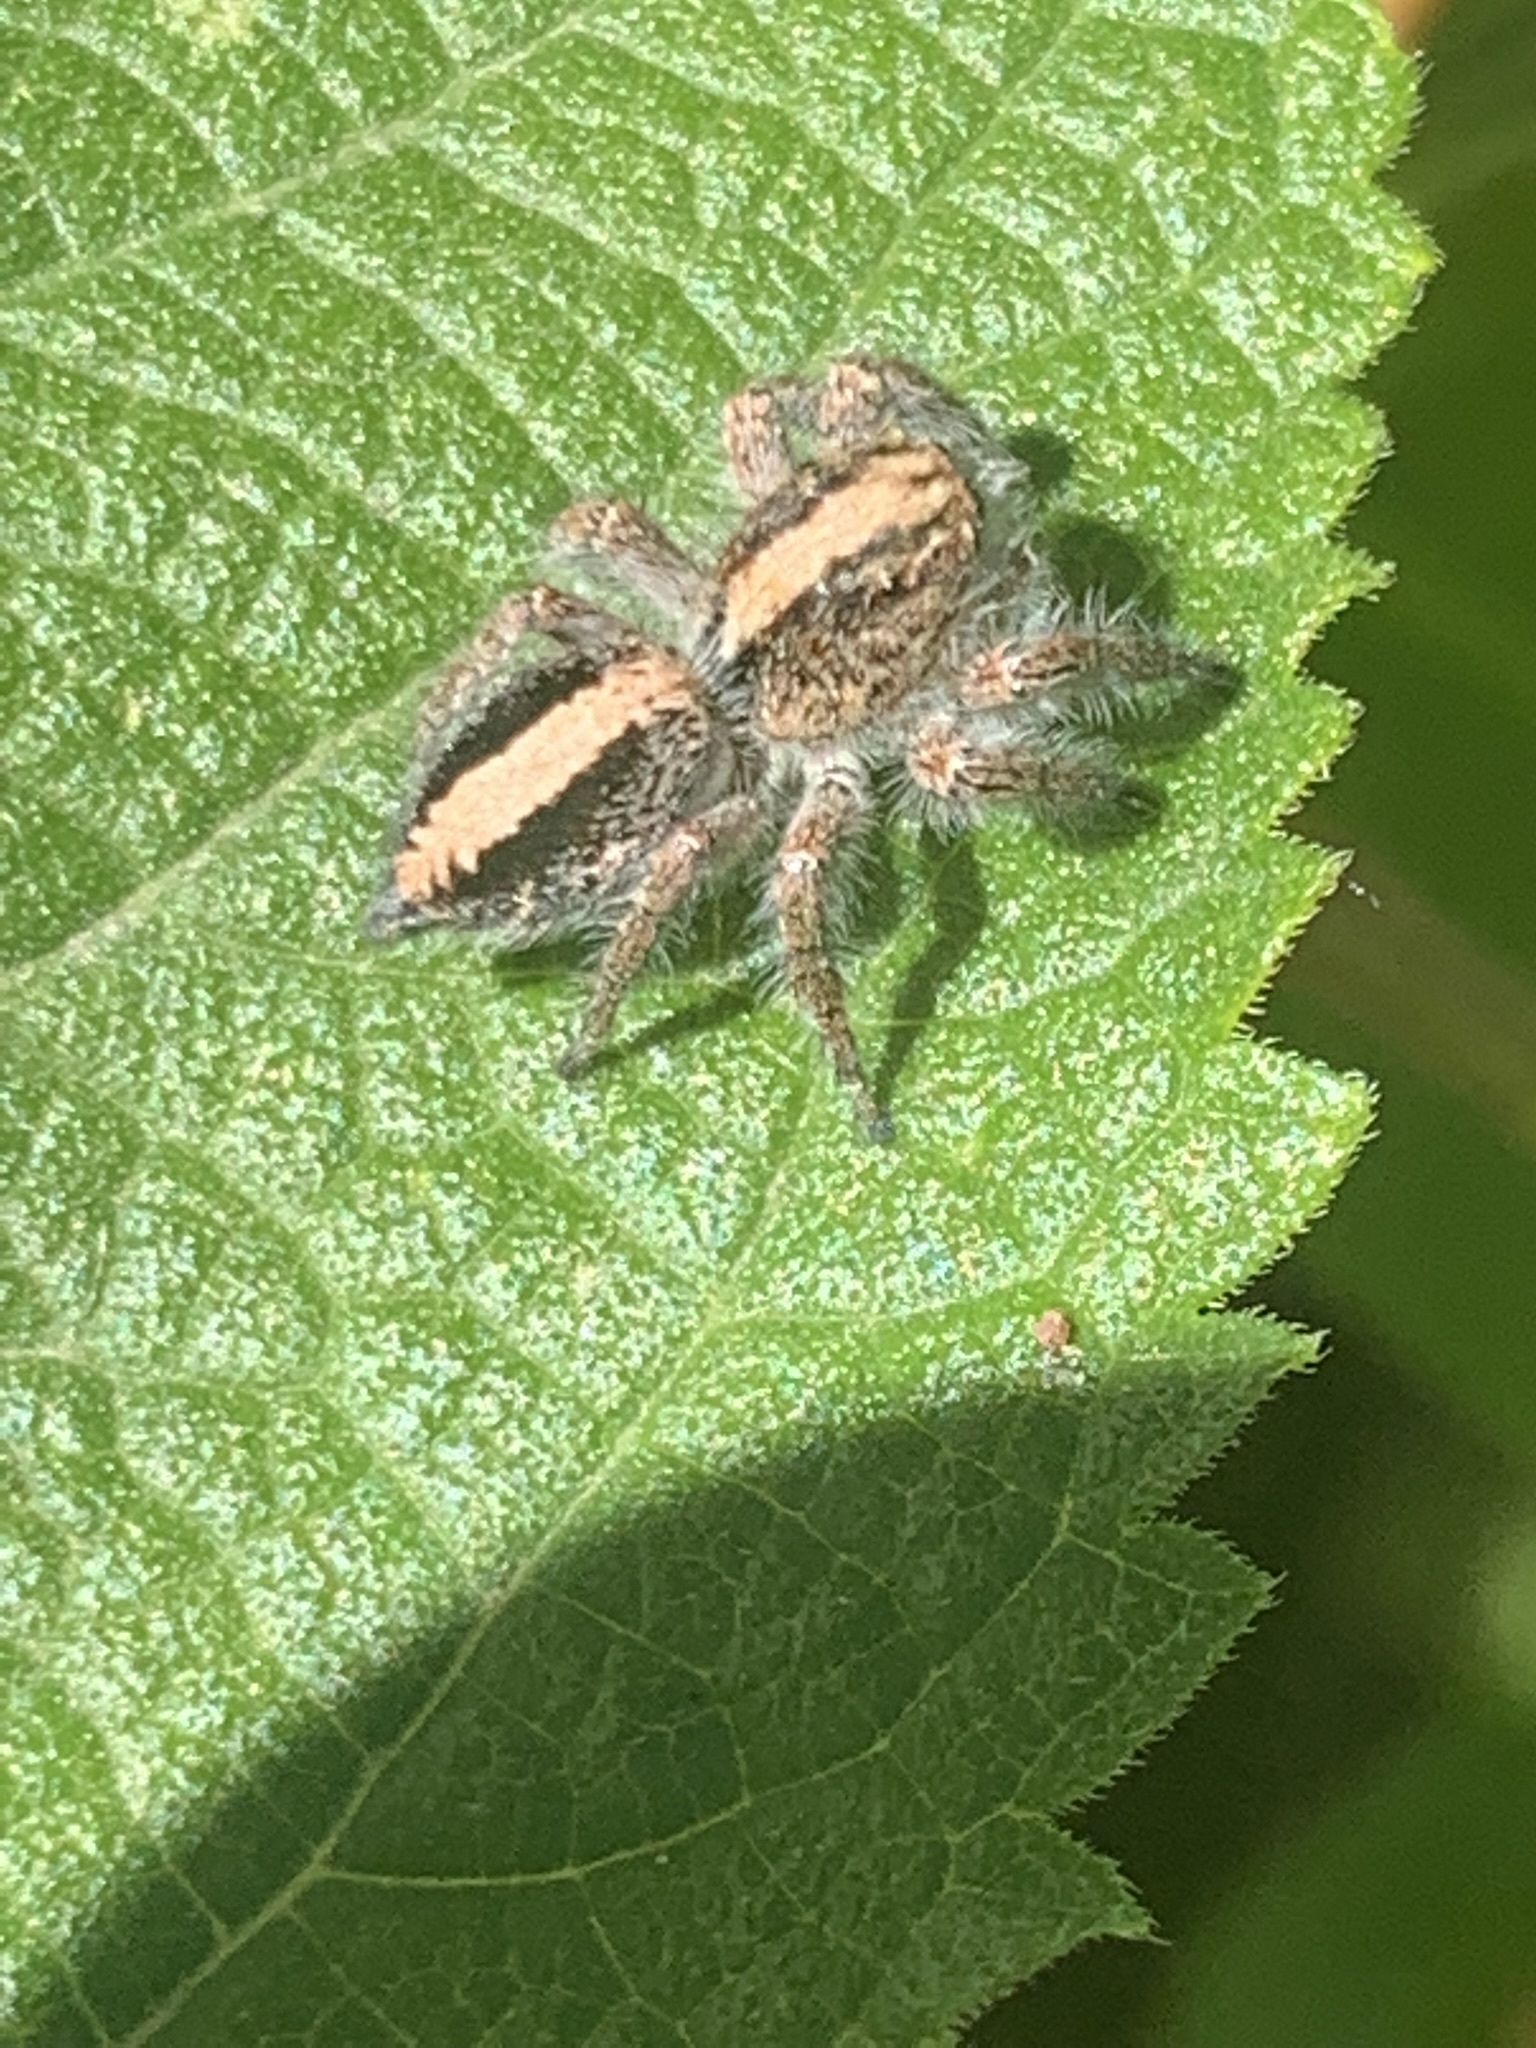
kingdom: Animalia
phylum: Arthropoda
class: Arachnida
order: Araneae
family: Salticidae
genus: Megafreya
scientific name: Megafreya sutrix
